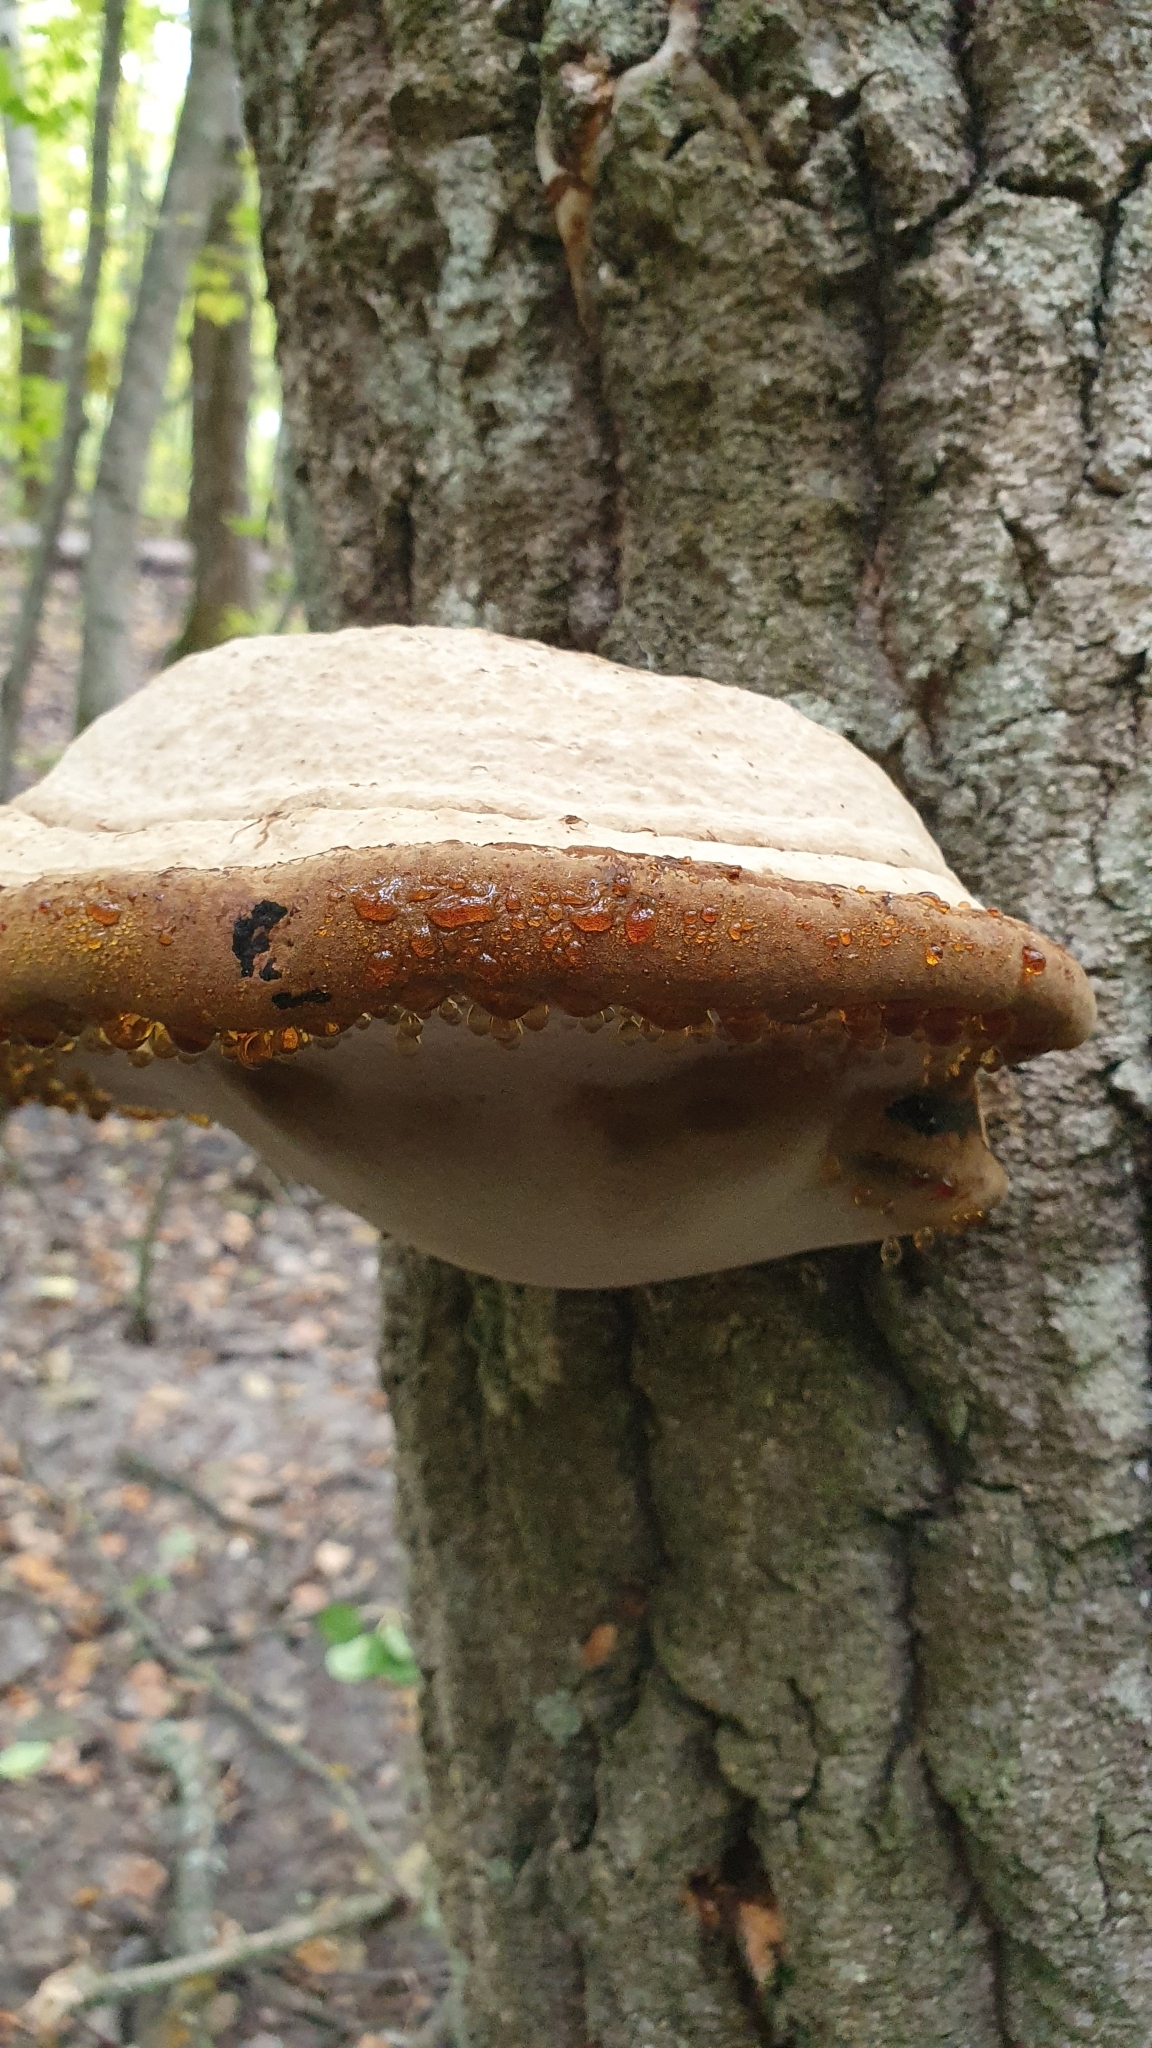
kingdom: Fungi
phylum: Basidiomycota
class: Agaricomycetes
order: Polyporales
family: Polyporaceae
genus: Fomes
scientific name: Fomes fomentarius
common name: Hoof fungus
